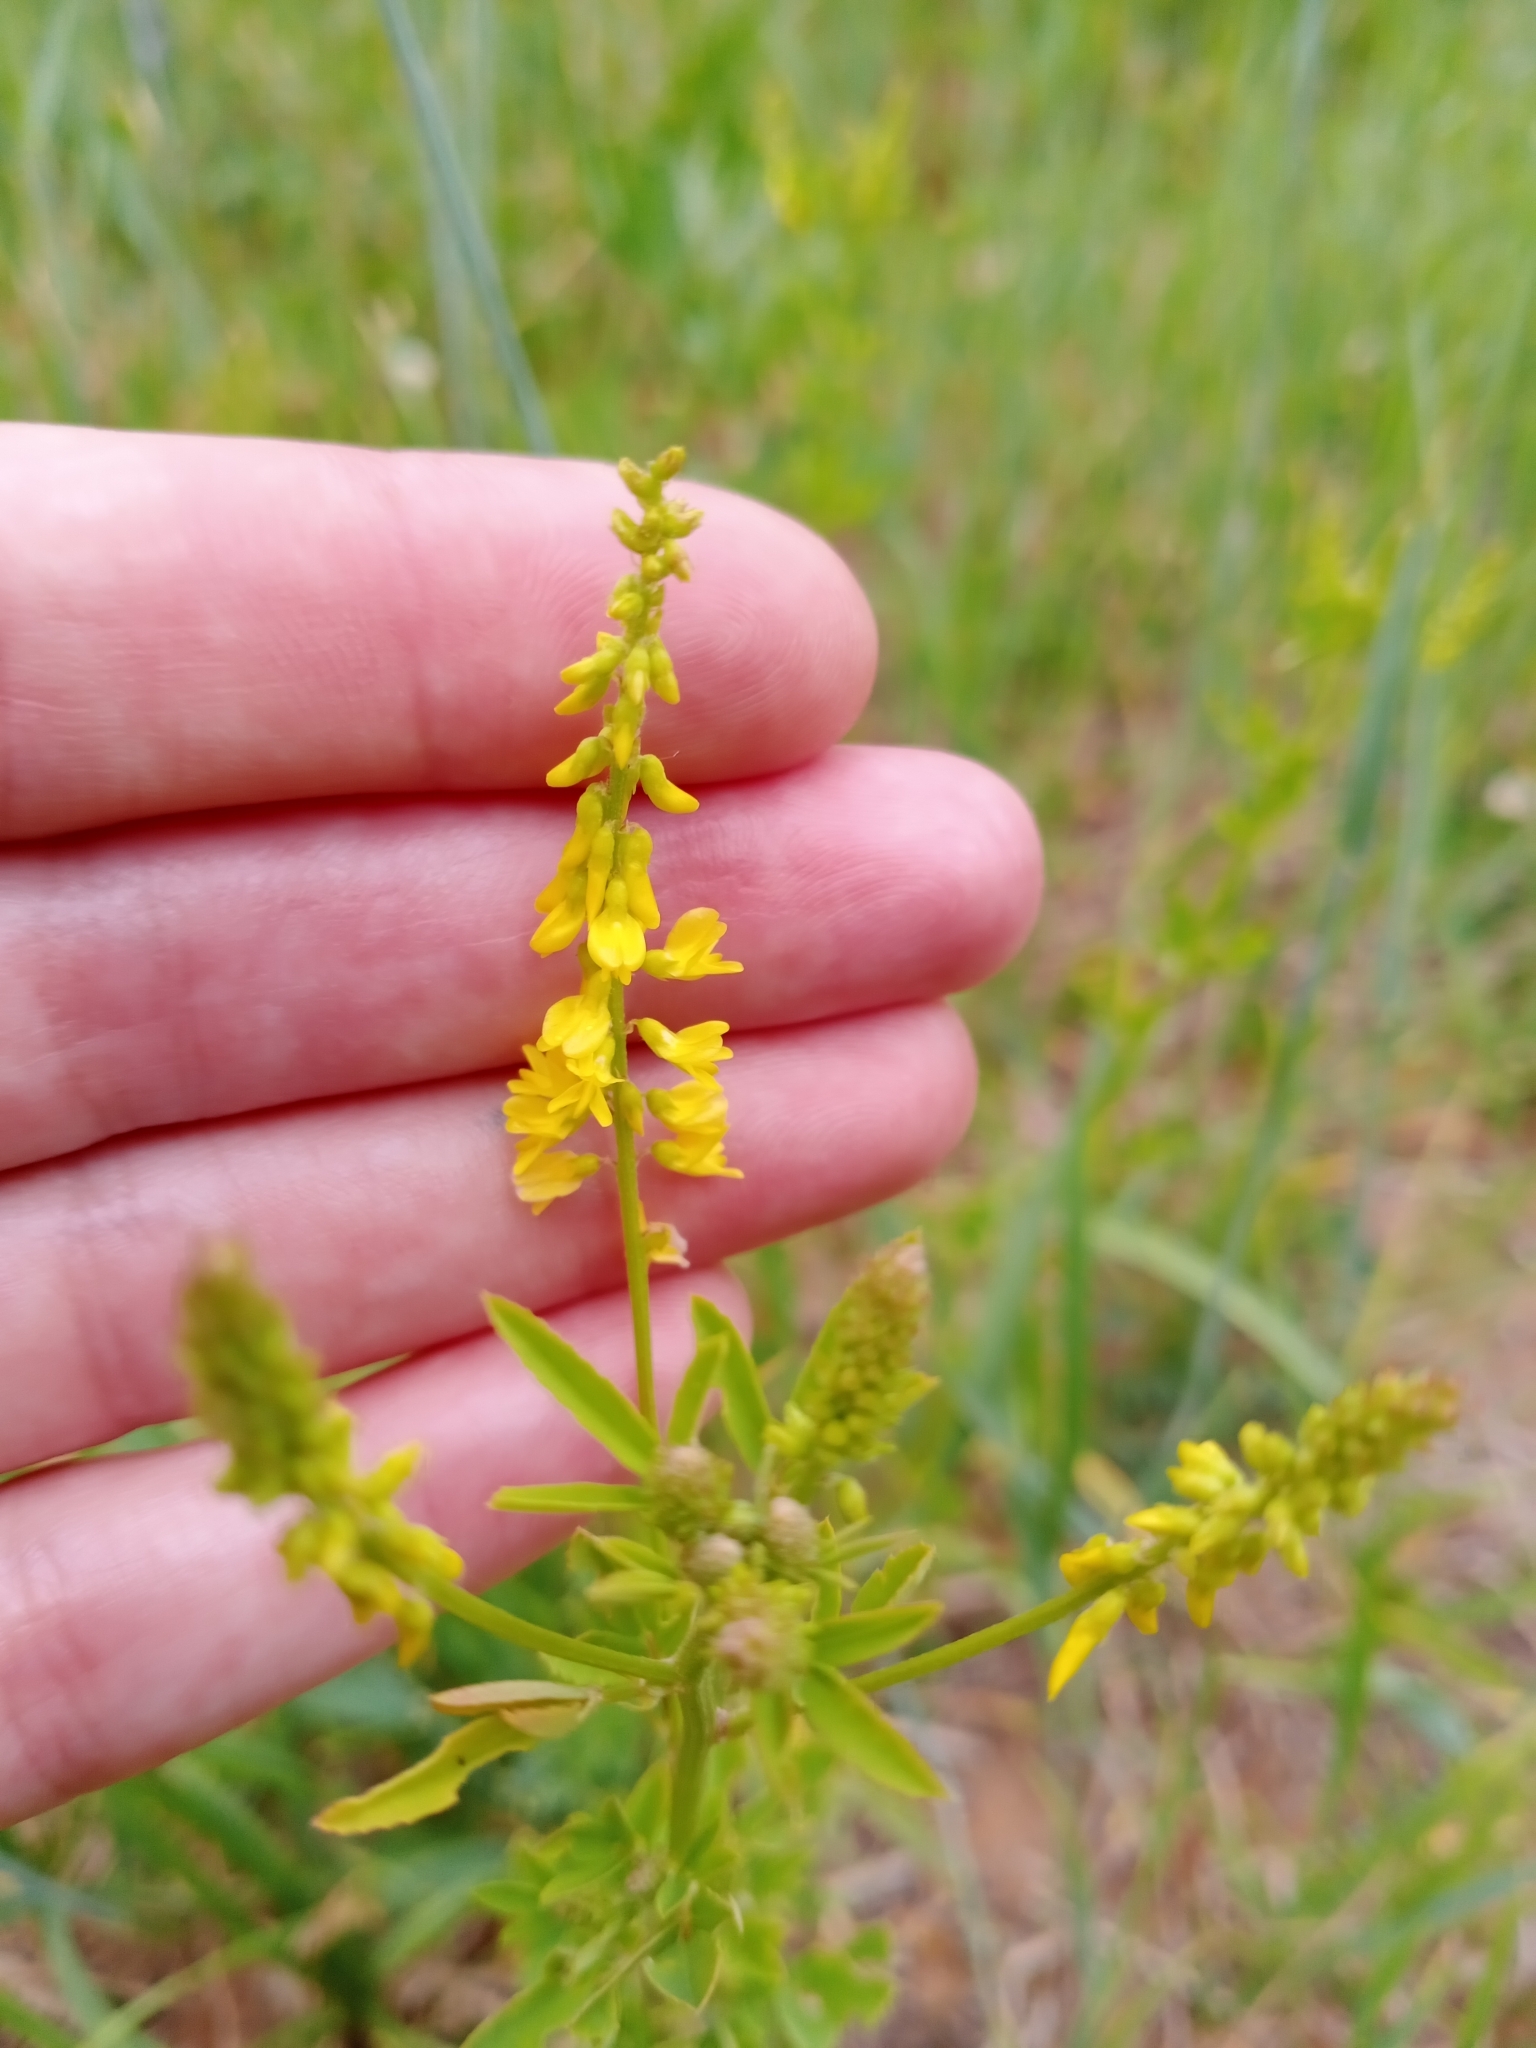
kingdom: Plantae
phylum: Tracheophyta
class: Magnoliopsida
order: Fabales
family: Fabaceae
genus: Melilotus
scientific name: Melilotus officinalis
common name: Sweetclover
